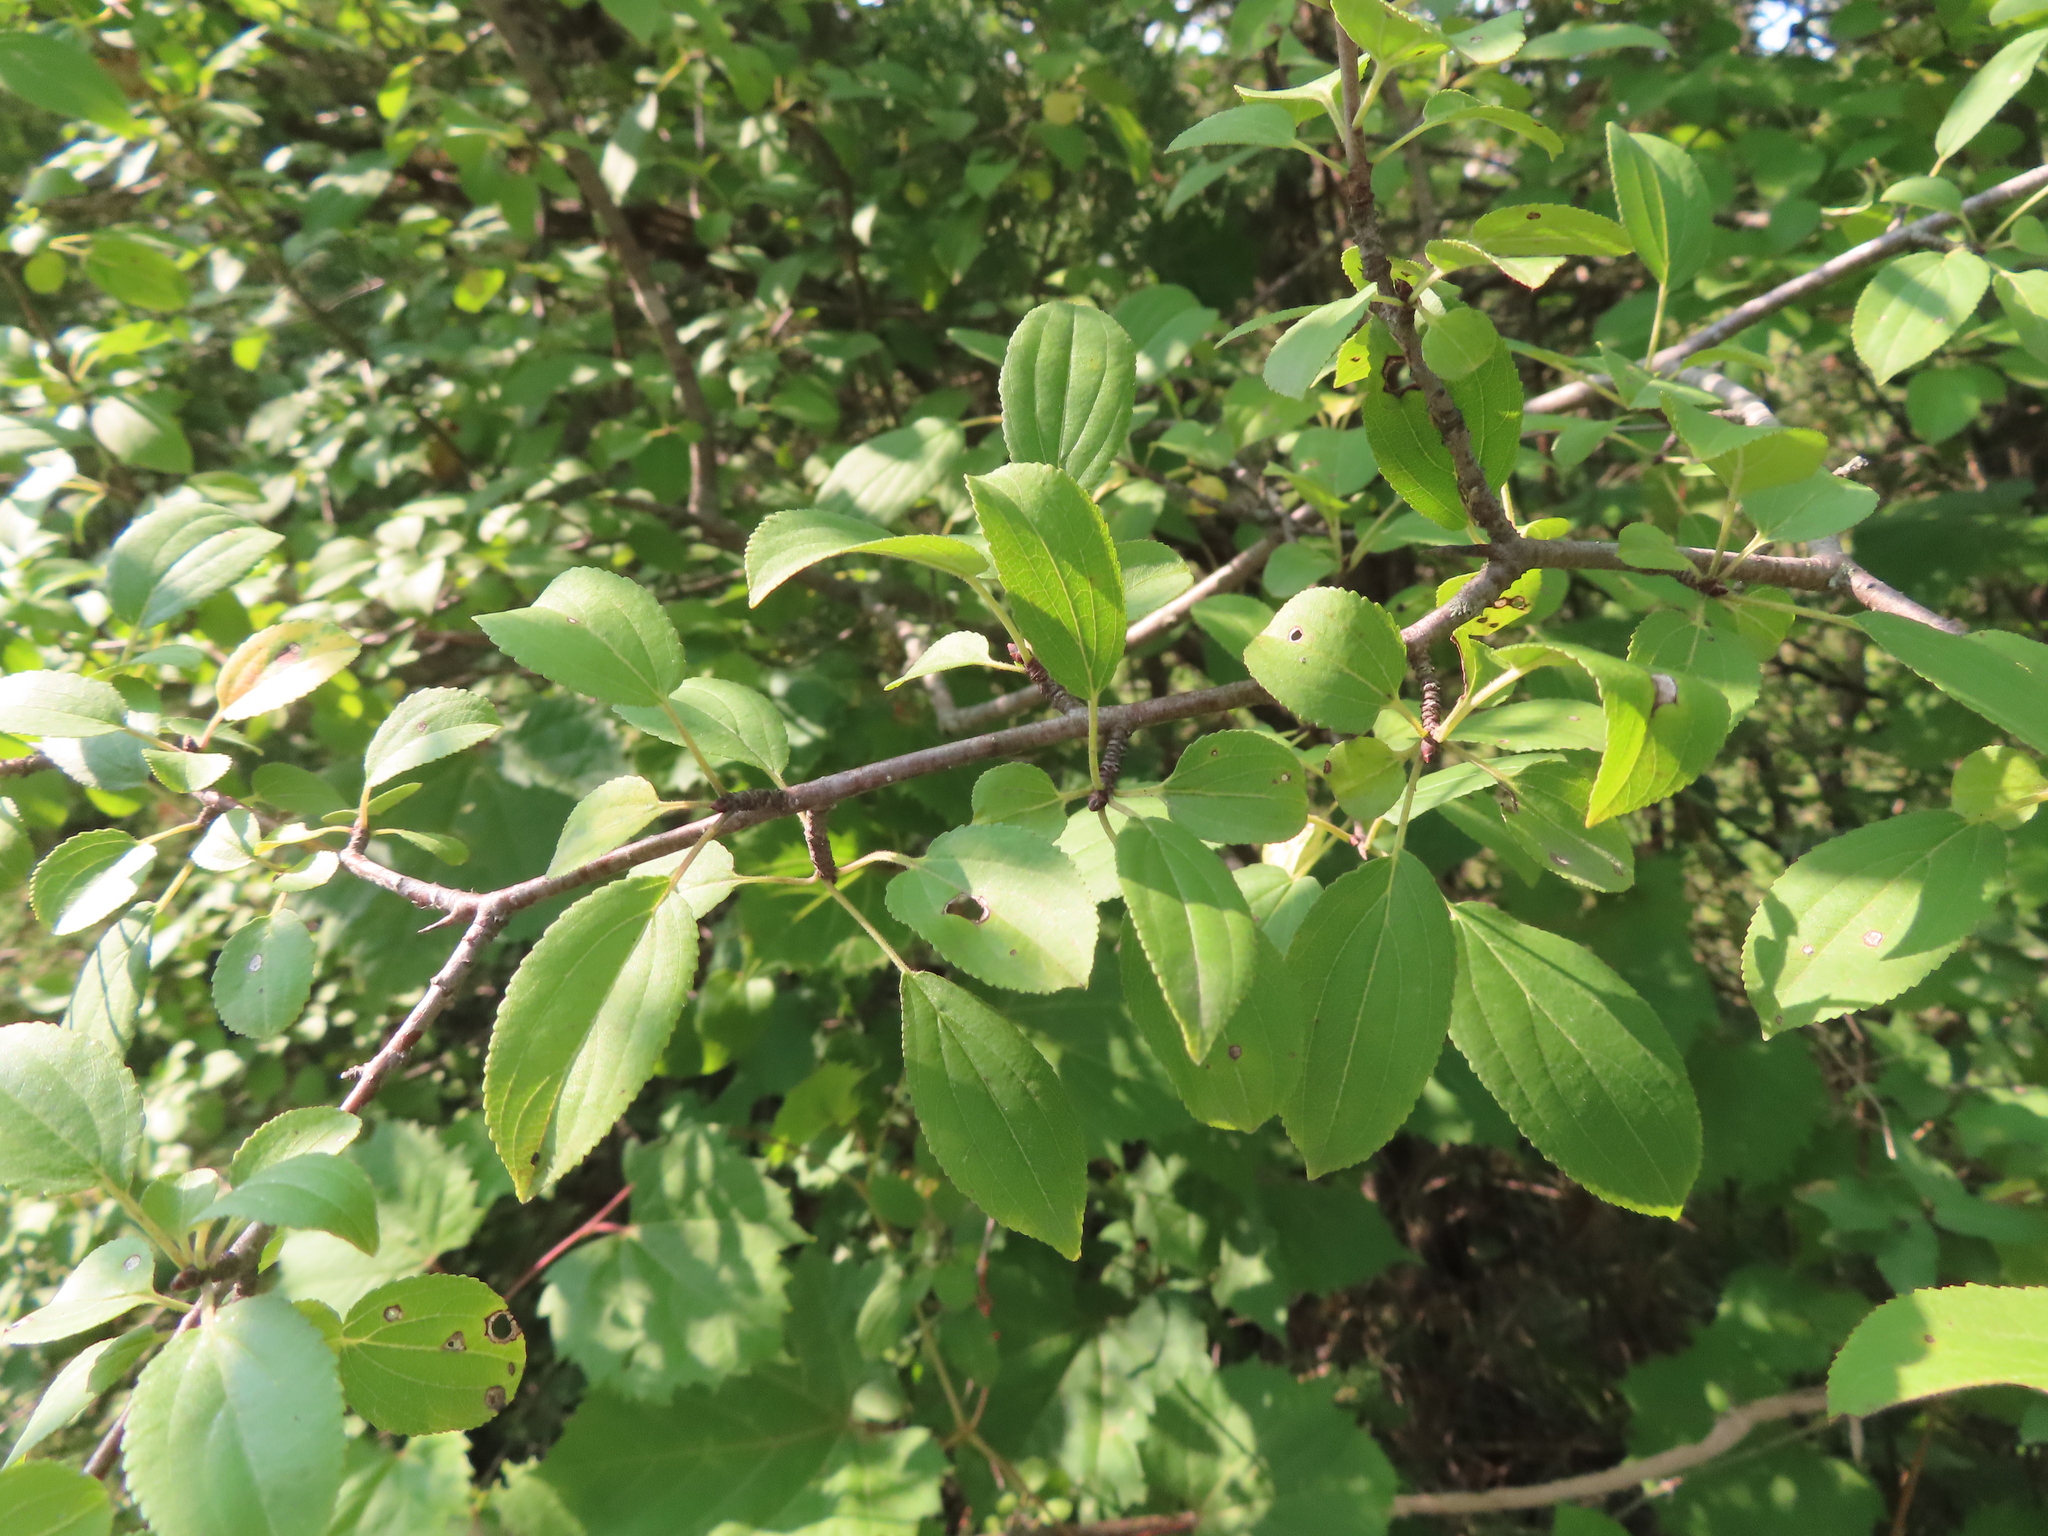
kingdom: Plantae
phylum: Tracheophyta
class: Magnoliopsida
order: Rosales
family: Rhamnaceae
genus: Rhamnus
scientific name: Rhamnus cathartica
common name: Common buckthorn
